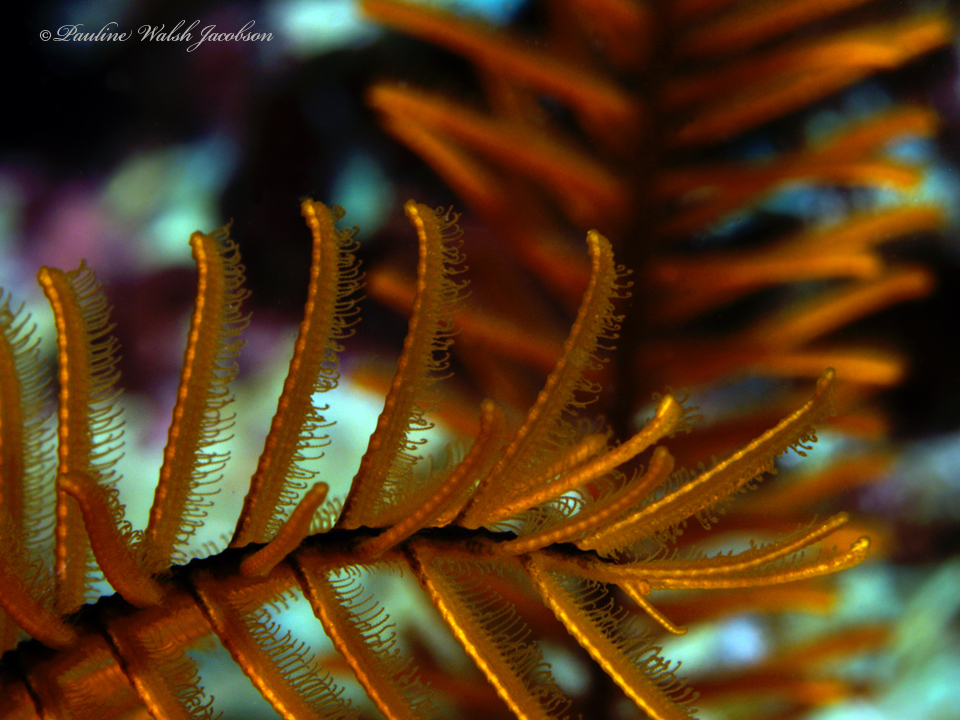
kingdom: Animalia
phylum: Echinodermata
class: Crinoidea
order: Comatulida
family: Comatulidae
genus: Davidaster
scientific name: Davidaster rubiginosus
